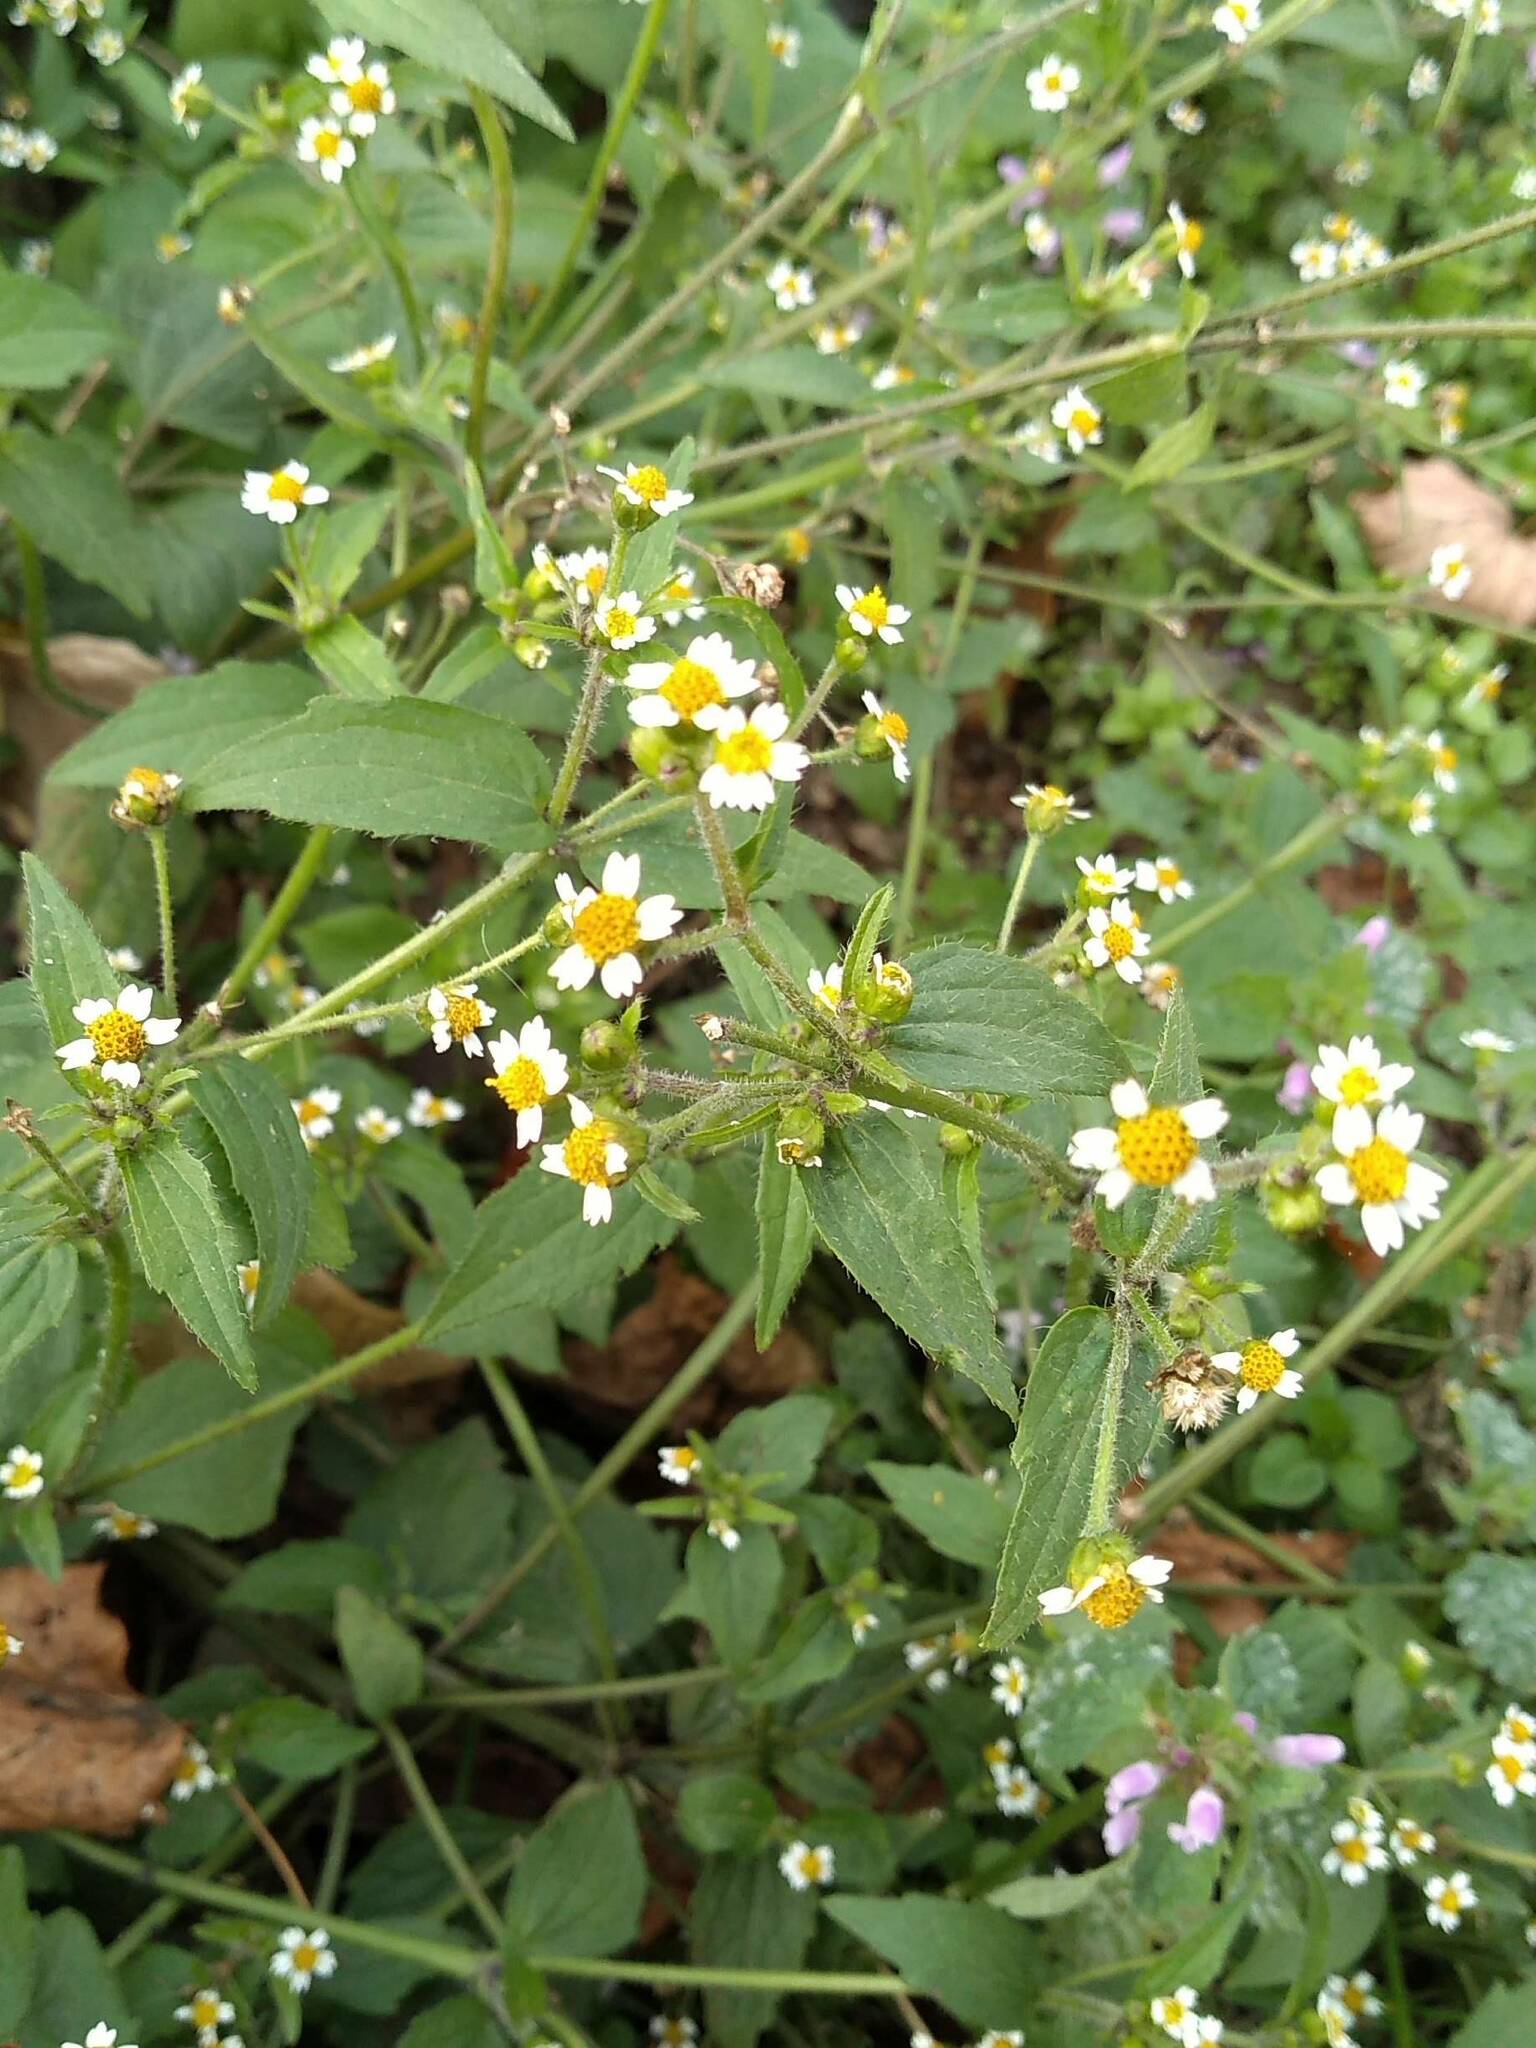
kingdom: Plantae
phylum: Tracheophyta
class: Magnoliopsida
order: Asterales
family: Asteraceae
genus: Galinsoga
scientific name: Galinsoga quadriradiata
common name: Shaggy soldier
